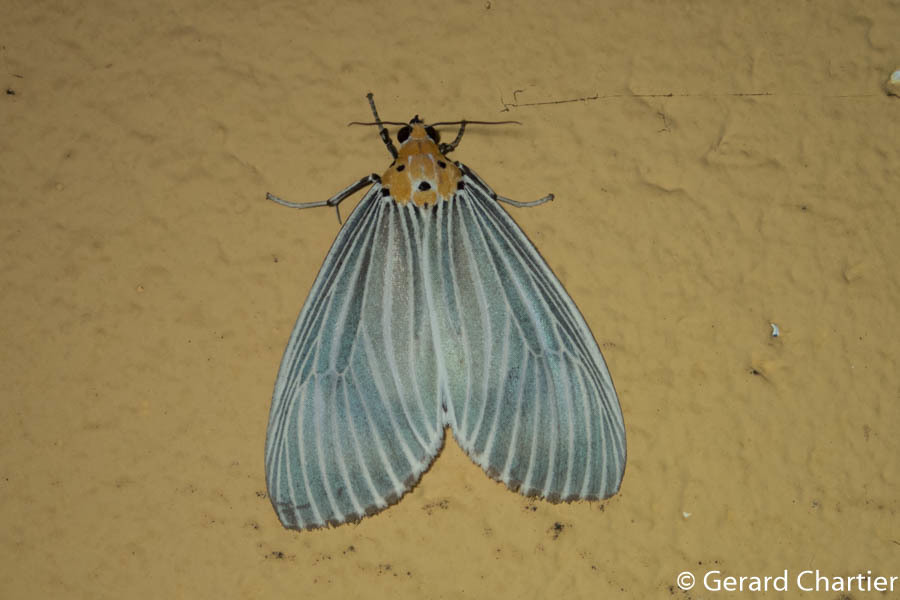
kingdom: Animalia
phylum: Arthropoda
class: Insecta
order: Lepidoptera
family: Erebidae
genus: Neochera
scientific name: Neochera dominia
